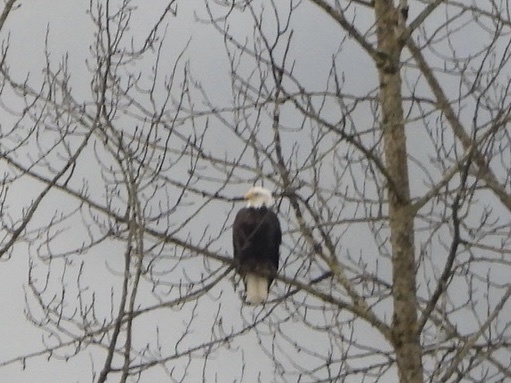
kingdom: Animalia
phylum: Chordata
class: Aves
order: Accipitriformes
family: Accipitridae
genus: Haliaeetus
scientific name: Haliaeetus leucocephalus
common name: Bald eagle
